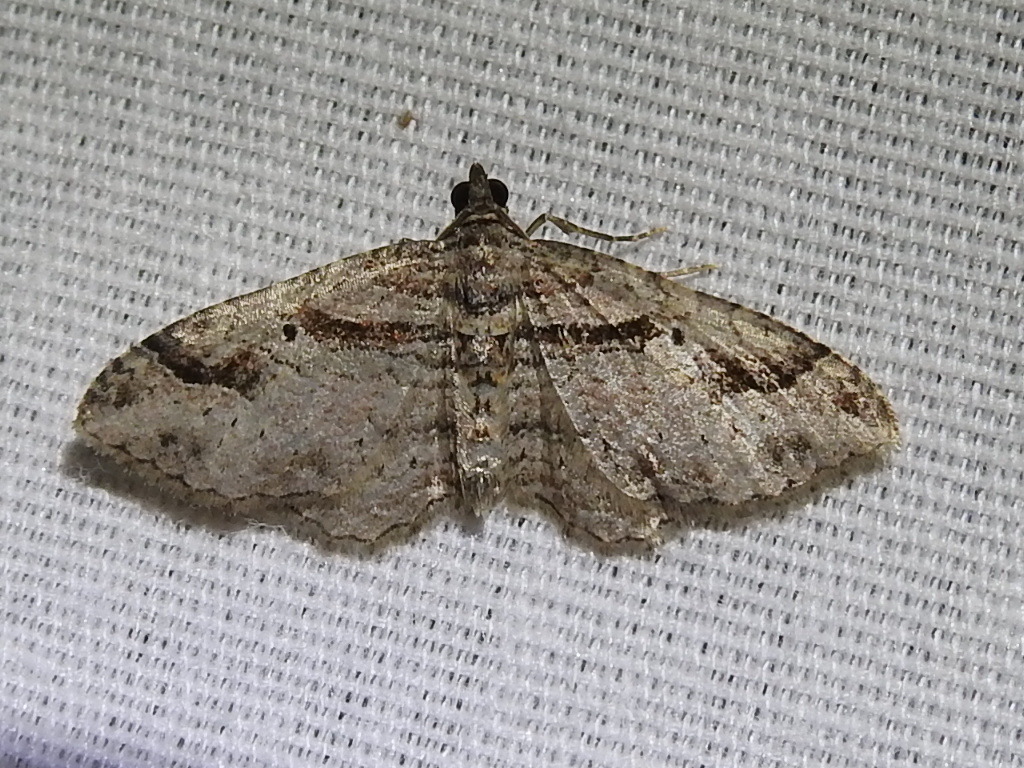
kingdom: Animalia
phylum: Arthropoda
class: Insecta
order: Lepidoptera
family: Geometridae
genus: Costaconvexa
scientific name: Costaconvexa centrostrigaria
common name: Bent-line carpet
